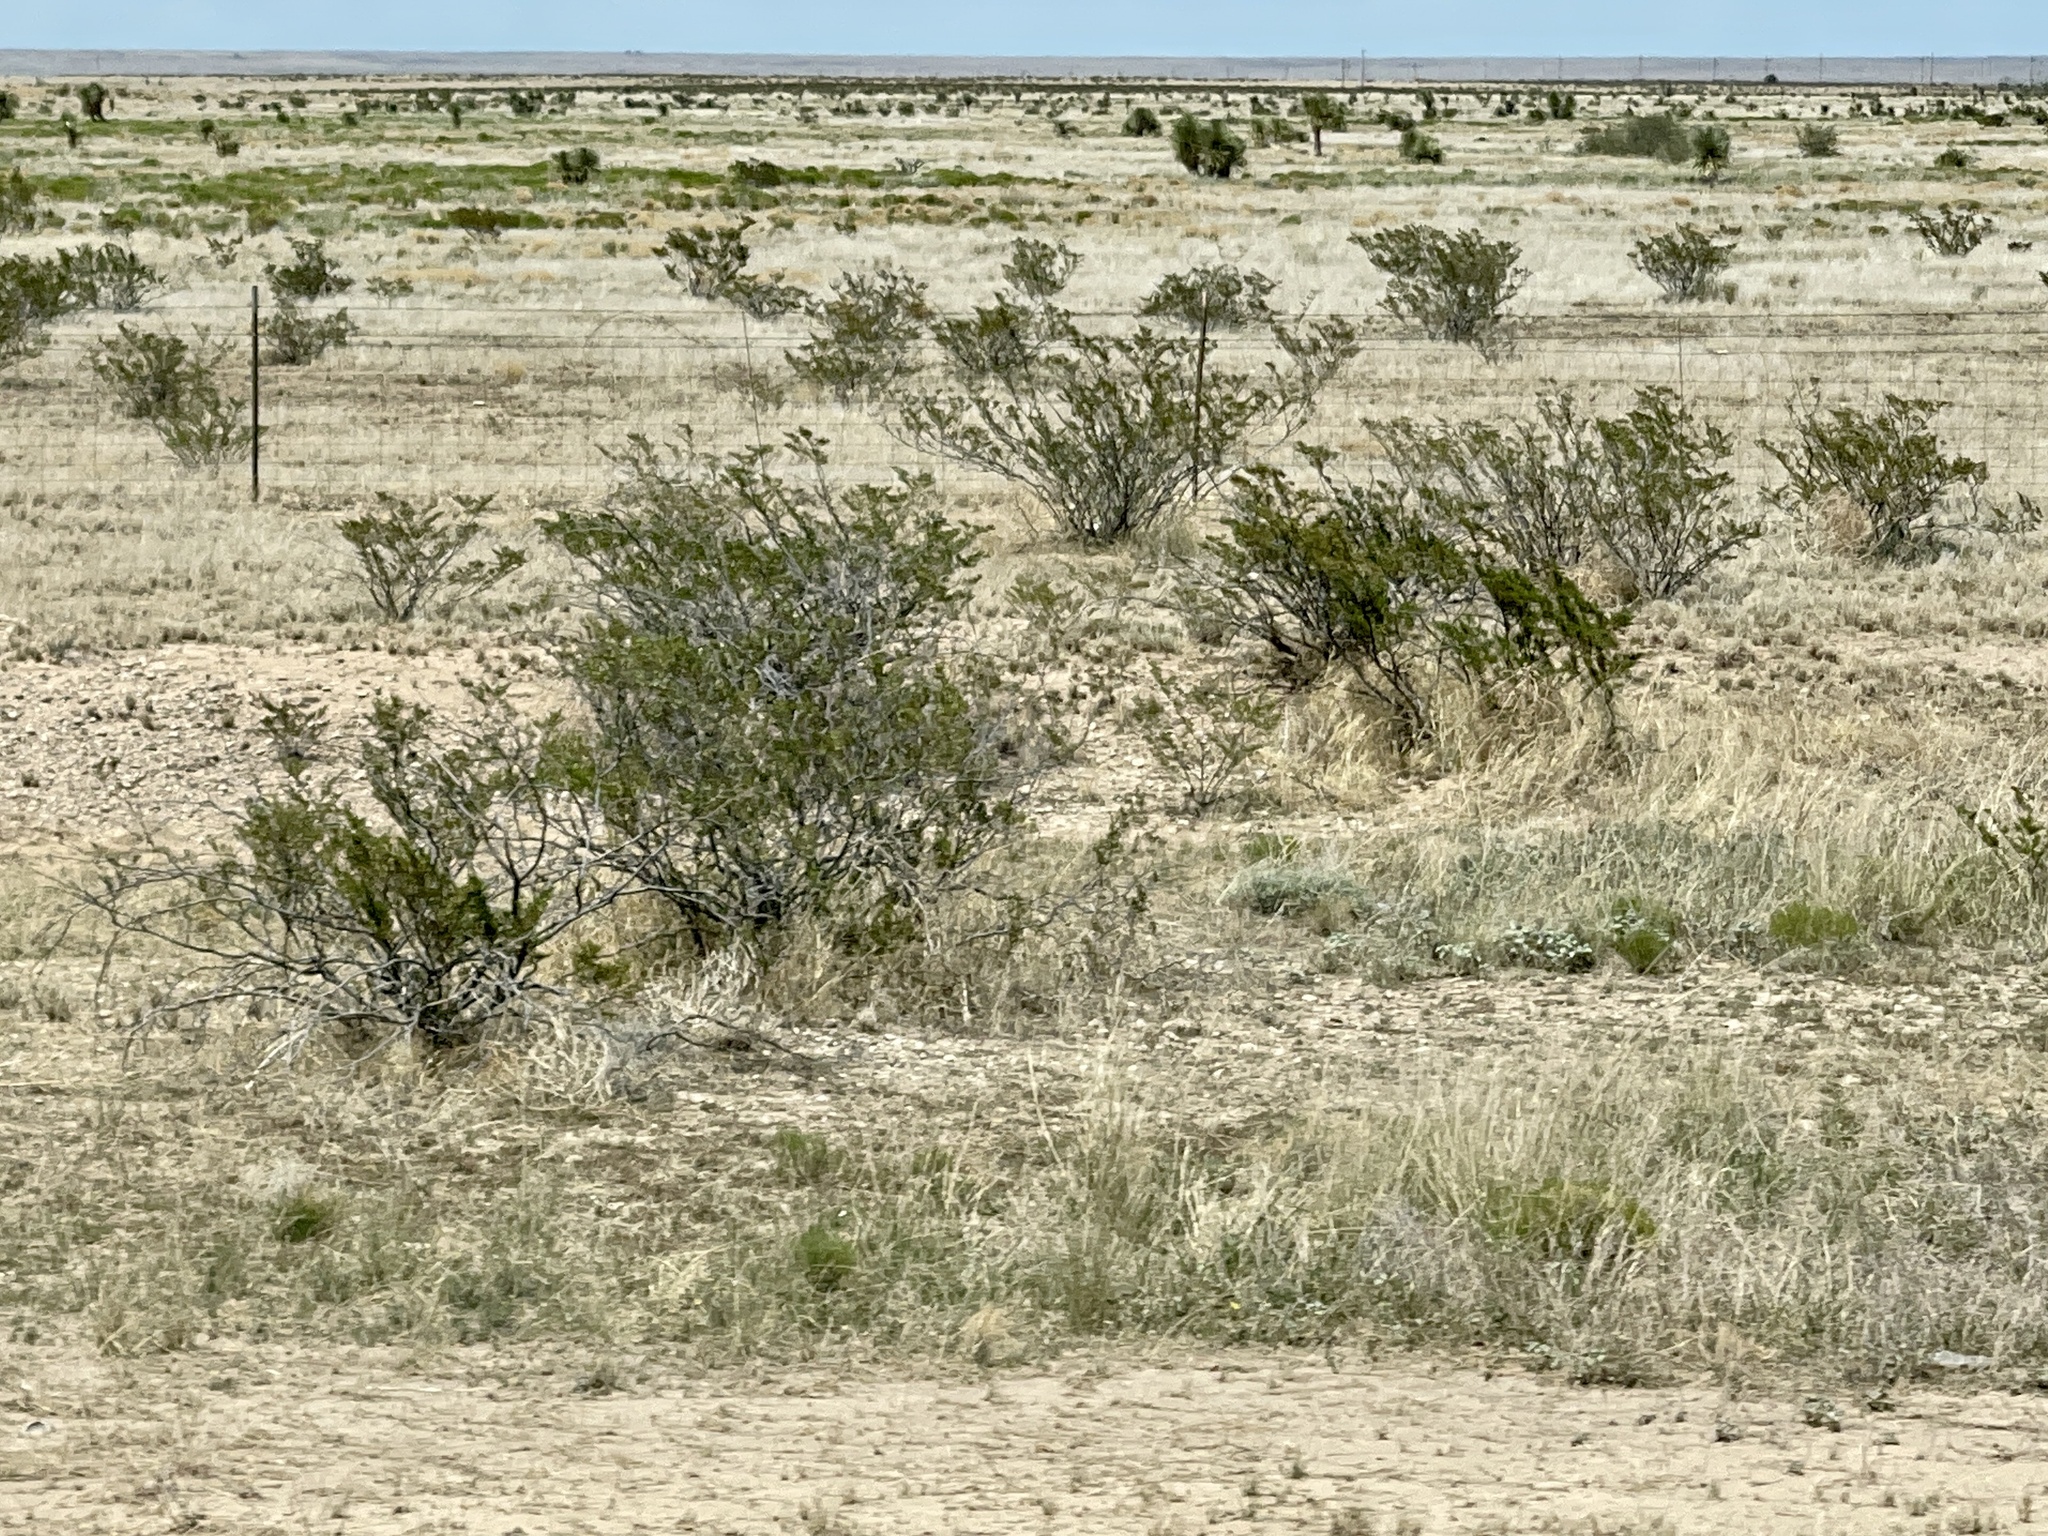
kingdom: Plantae
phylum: Tracheophyta
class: Magnoliopsida
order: Zygophyllales
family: Zygophyllaceae
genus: Larrea
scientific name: Larrea tridentata
